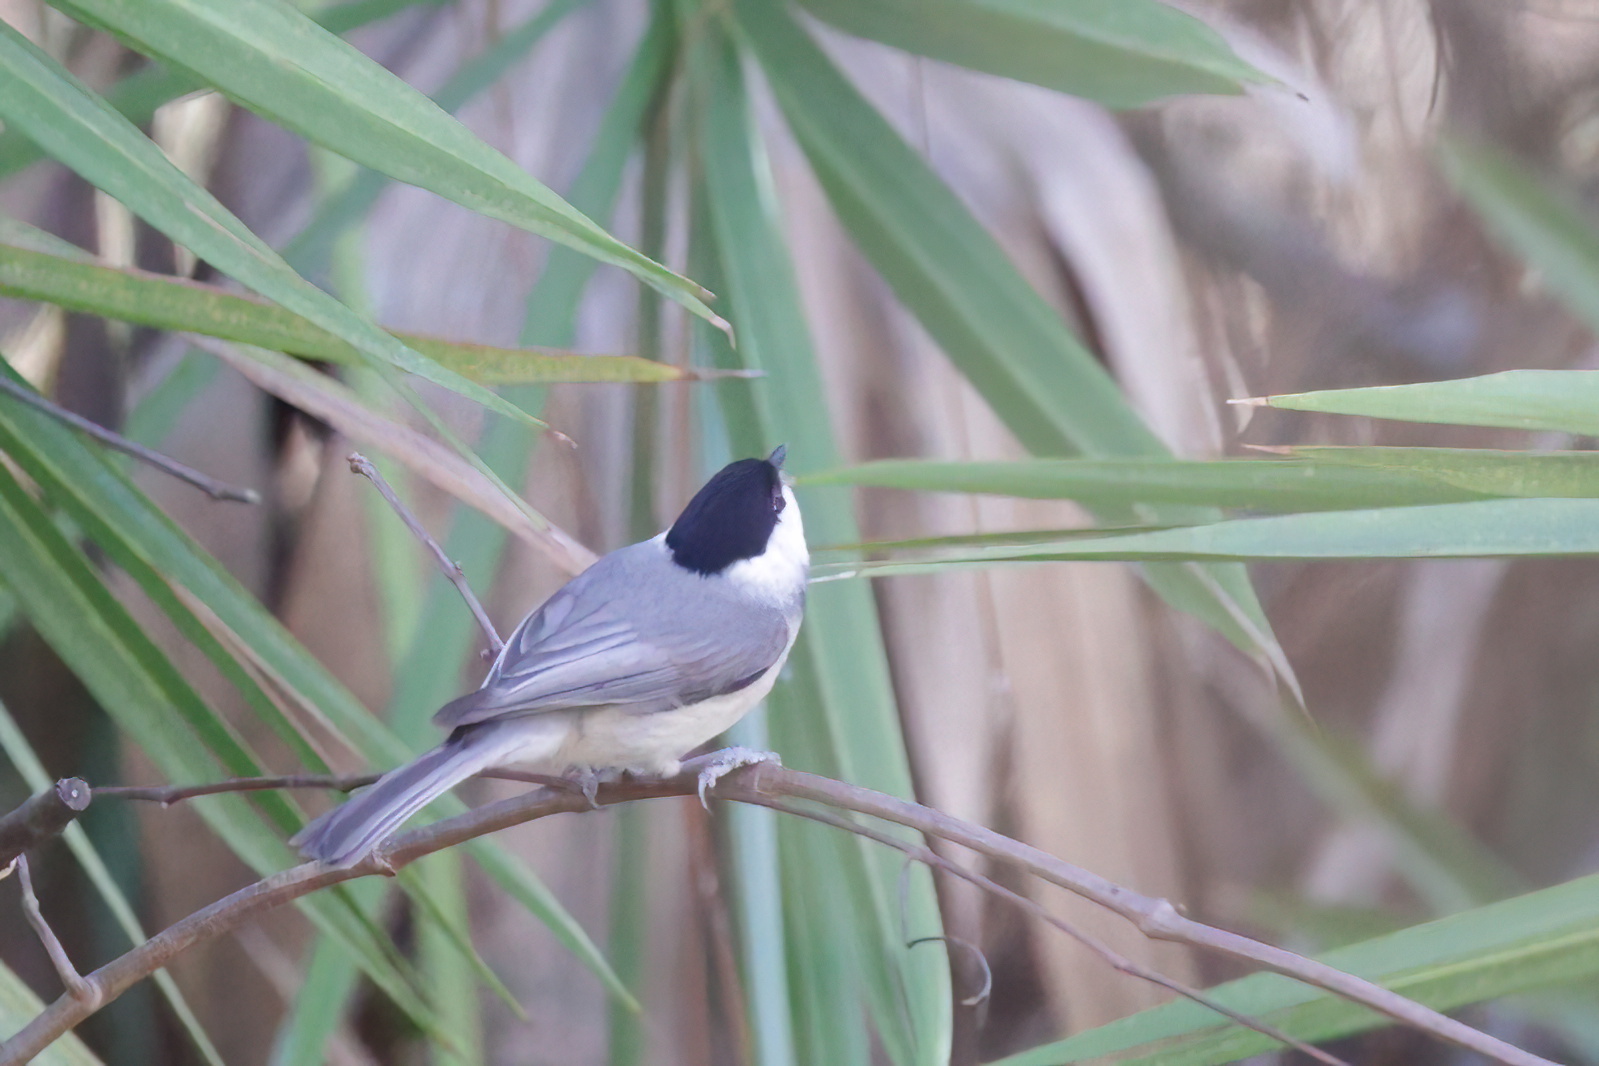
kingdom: Animalia
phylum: Chordata
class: Aves
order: Passeriformes
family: Paridae
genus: Poecile
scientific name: Poecile carolinensis
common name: Carolina chickadee
